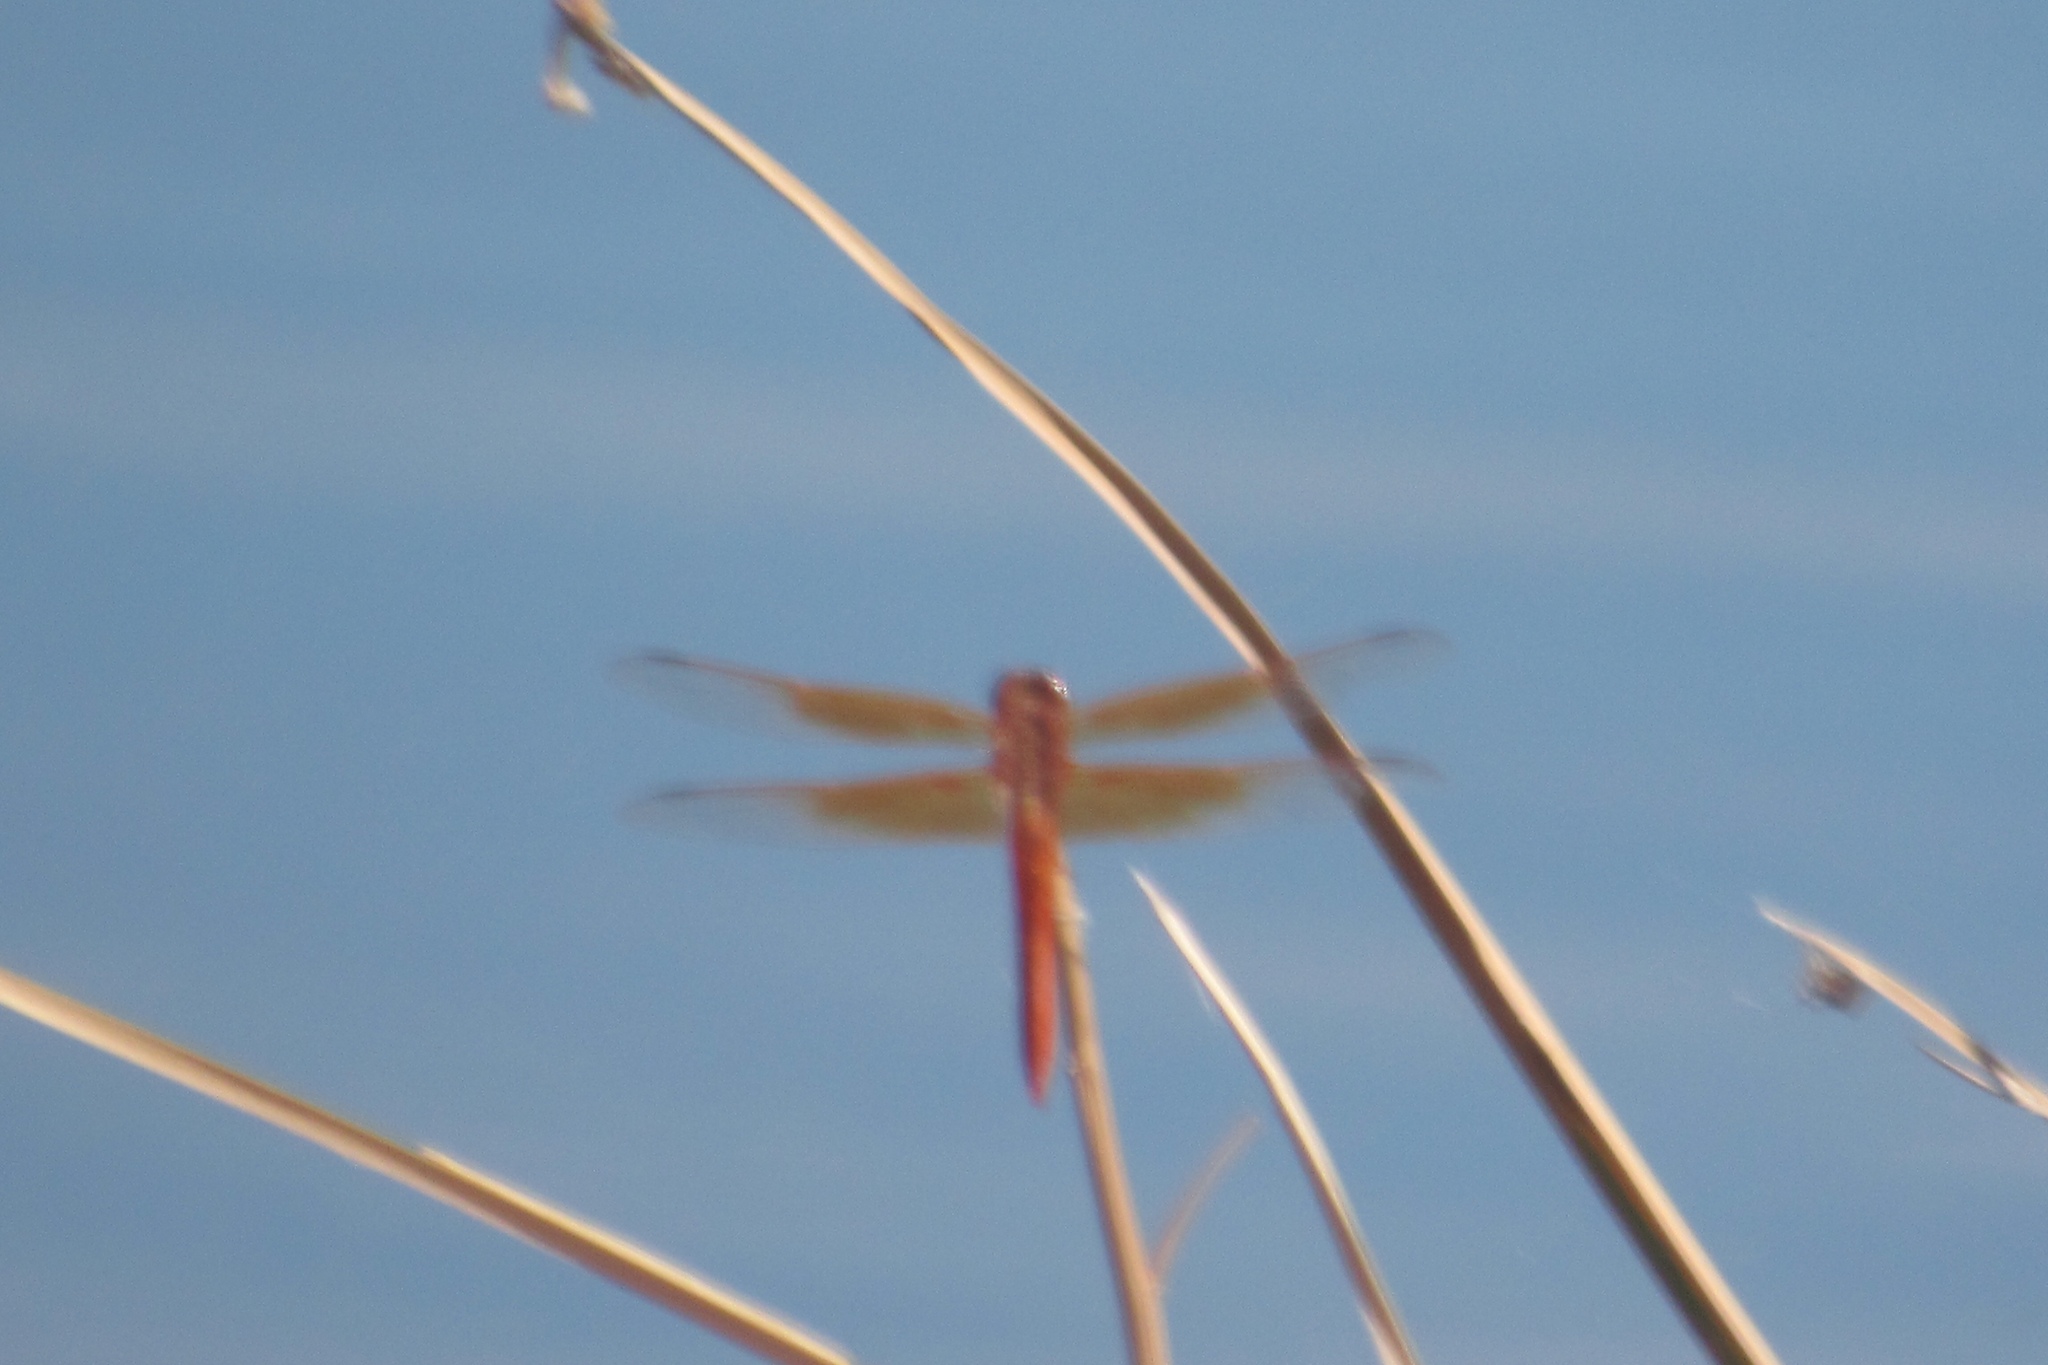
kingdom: Animalia
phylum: Arthropoda
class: Insecta
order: Odonata
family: Libellulidae
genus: Libellula
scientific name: Libellula saturata
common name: Flame skimmer
